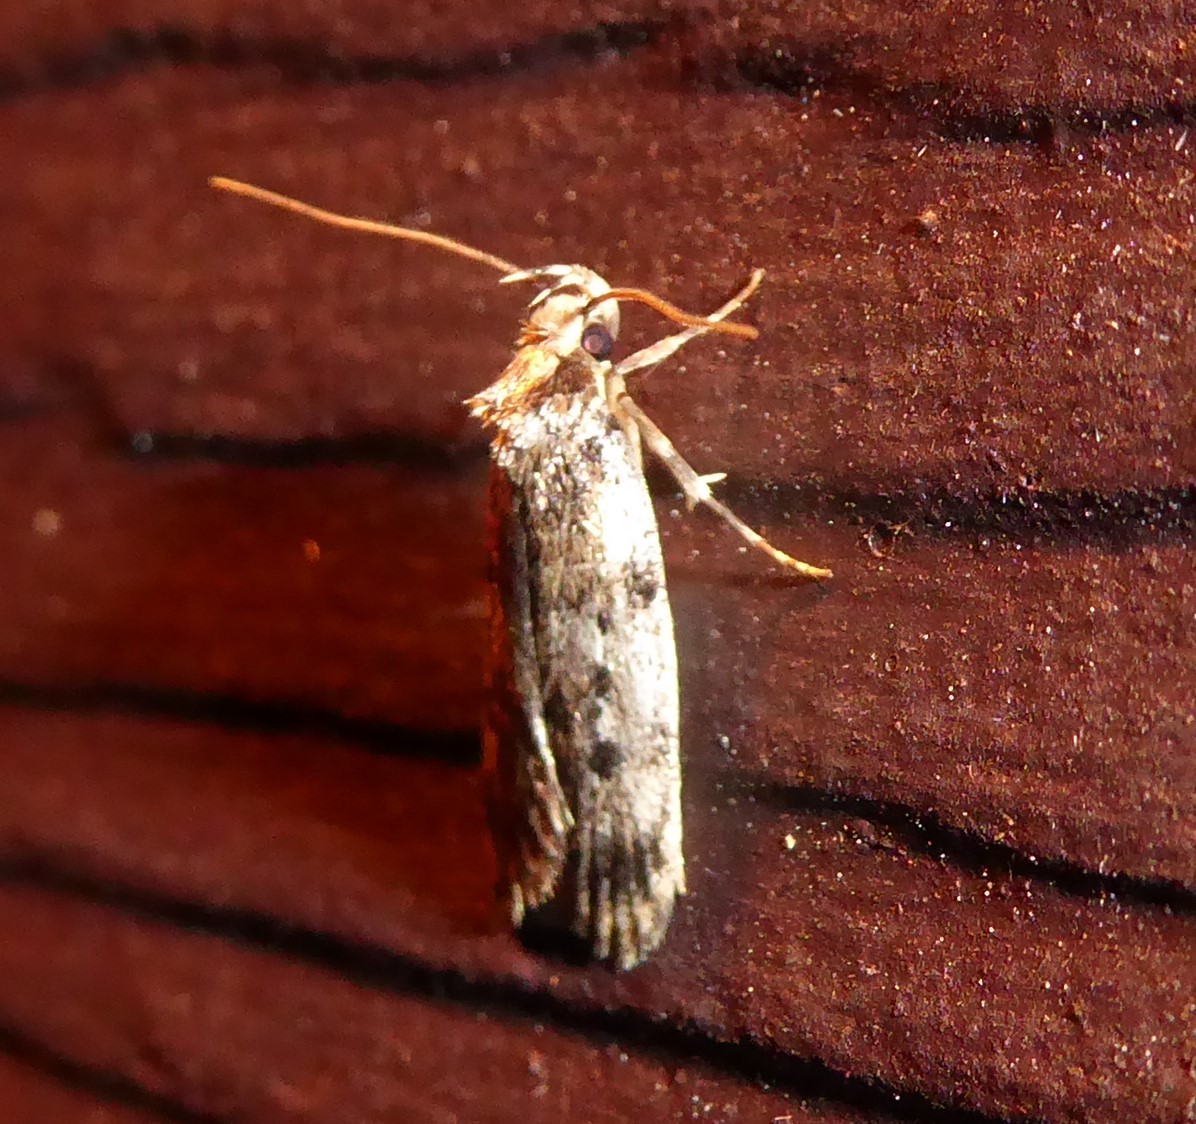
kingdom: Animalia
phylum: Arthropoda
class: Insecta
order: Lepidoptera
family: Oecophoridae
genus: Barea
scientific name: Barea exarcha
